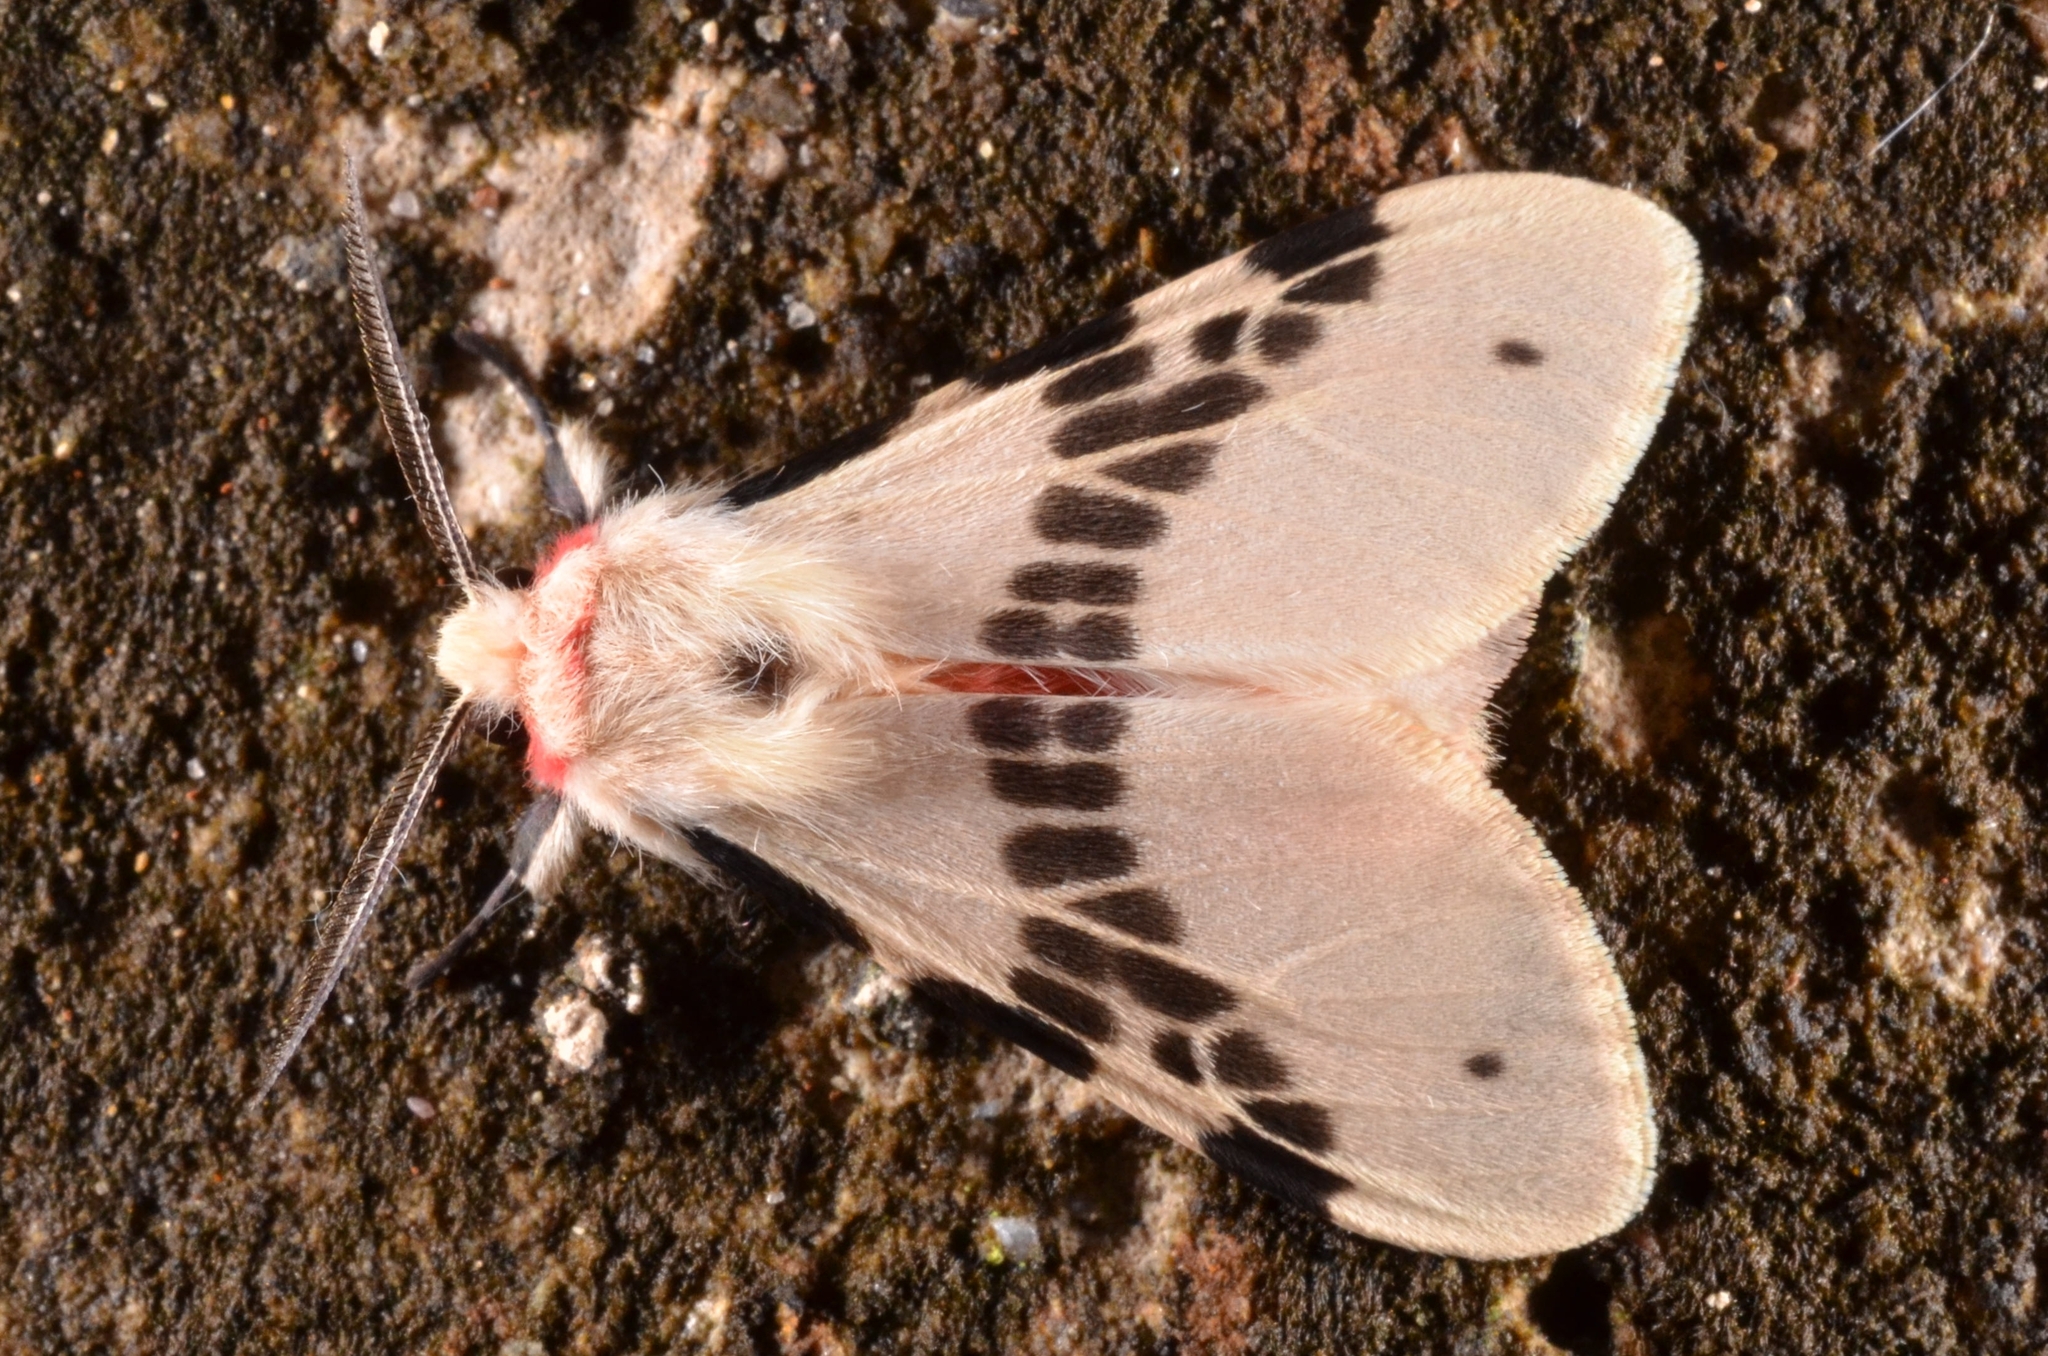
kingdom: Animalia
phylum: Arthropoda
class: Insecta
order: Lepidoptera
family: Erebidae
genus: Lemyra
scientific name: Lemyra ypsilon
